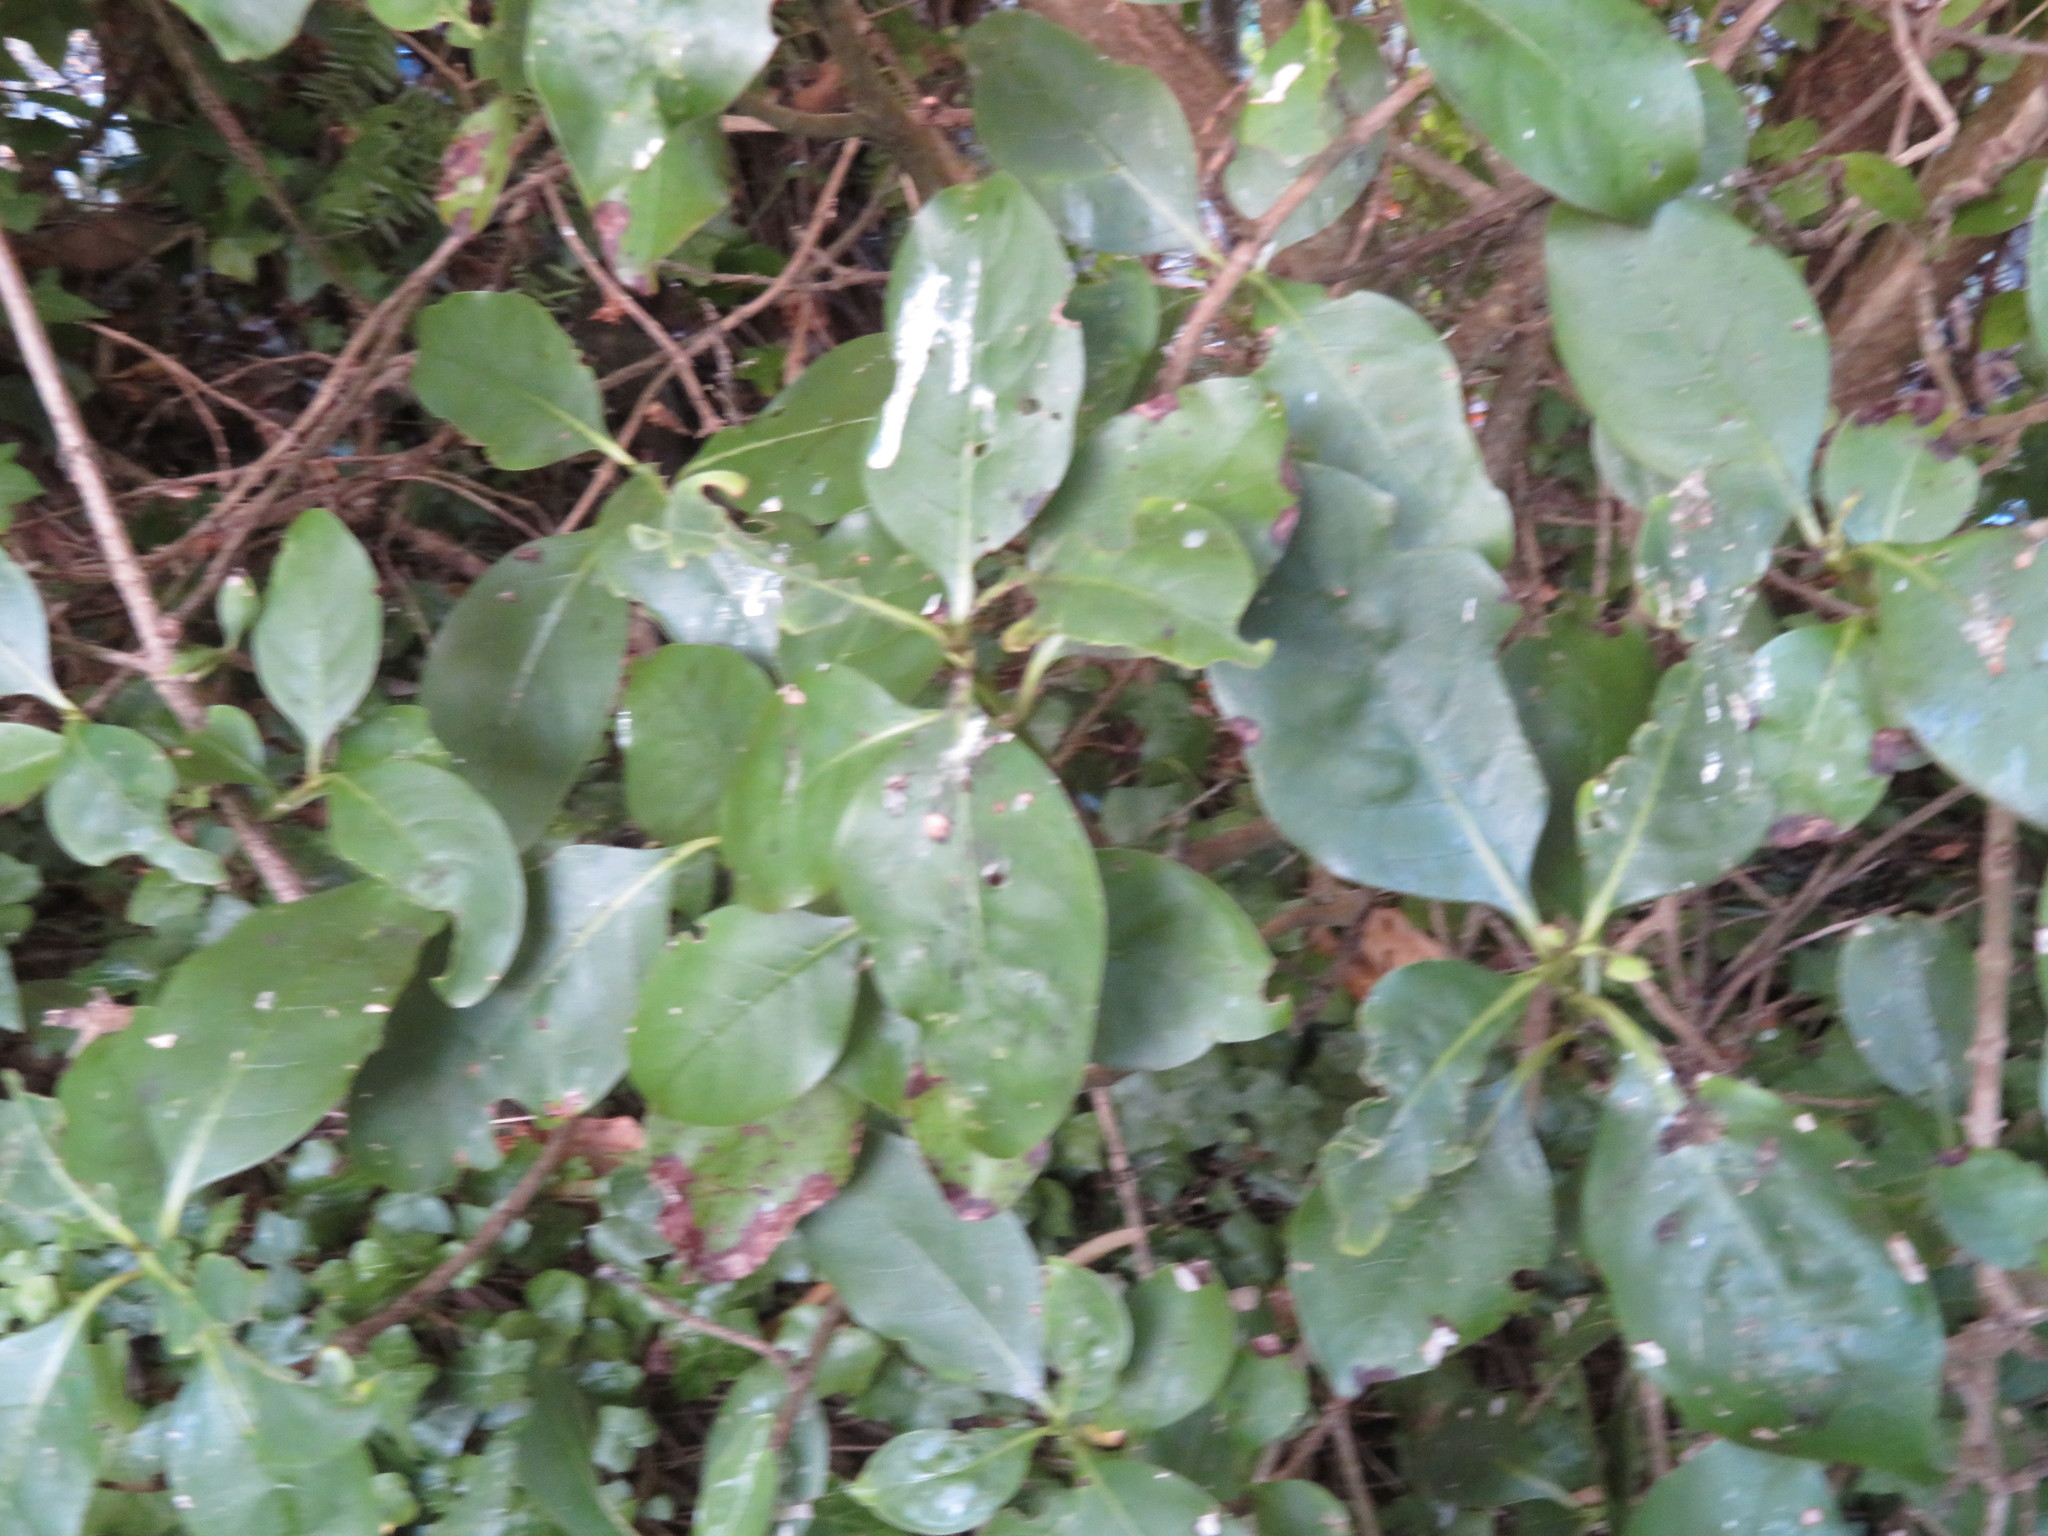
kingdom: Plantae
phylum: Tracheophyta
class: Magnoliopsida
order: Gentianales
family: Rubiaceae
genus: Coprosma
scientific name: Coprosma macrocarpa
